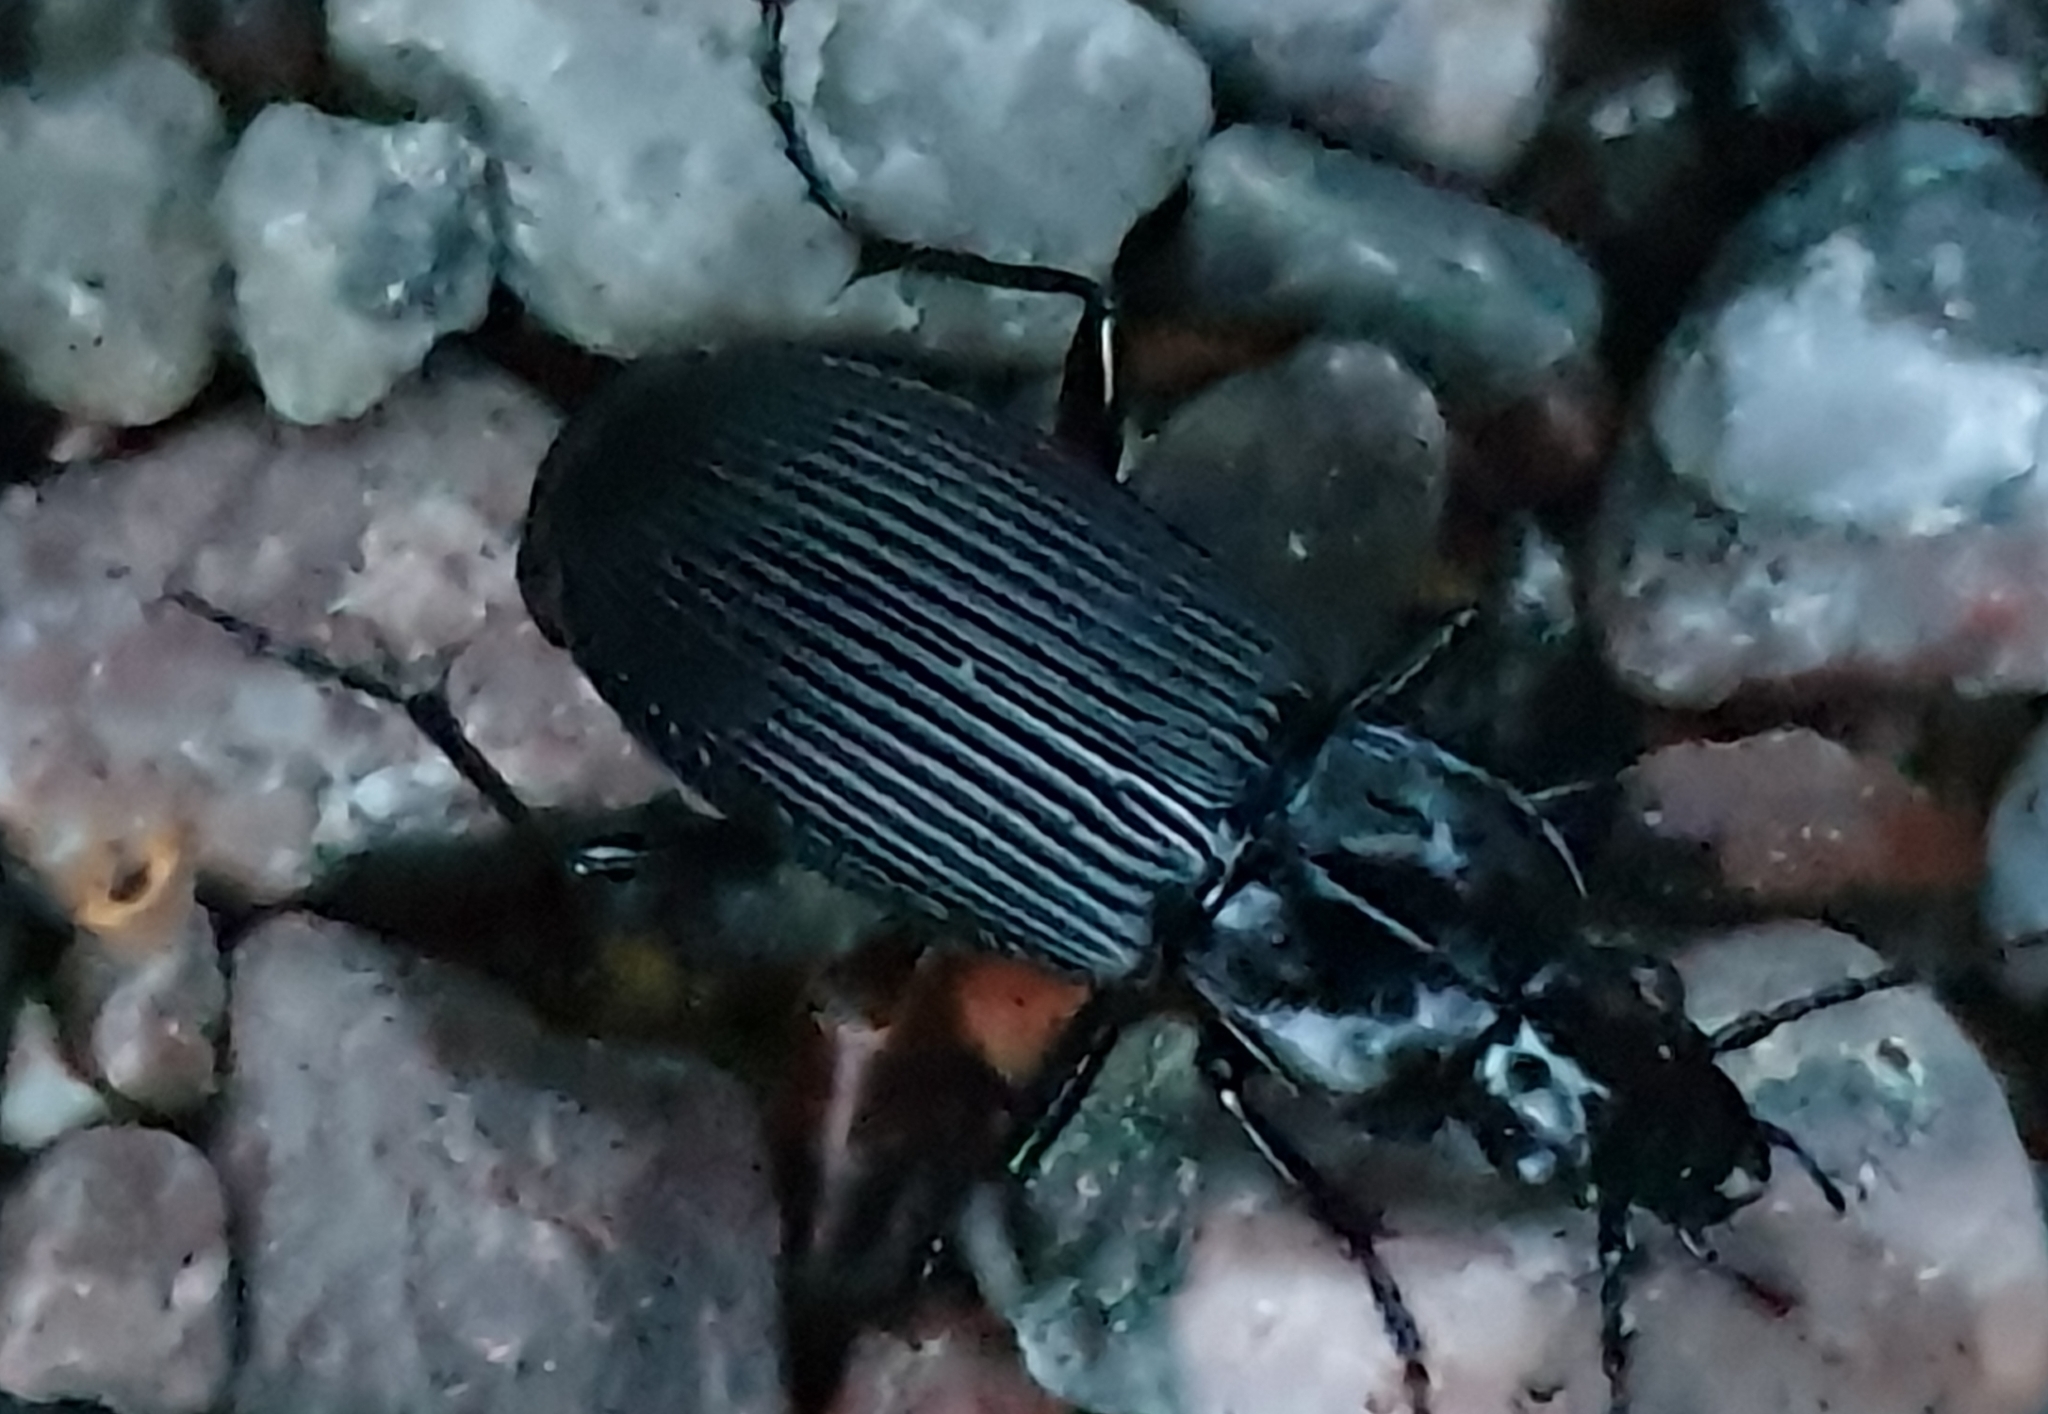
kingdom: Animalia
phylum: Arthropoda
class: Insecta
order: Coleoptera
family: Carabidae
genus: Pterostichus
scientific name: Pterostichus niger
